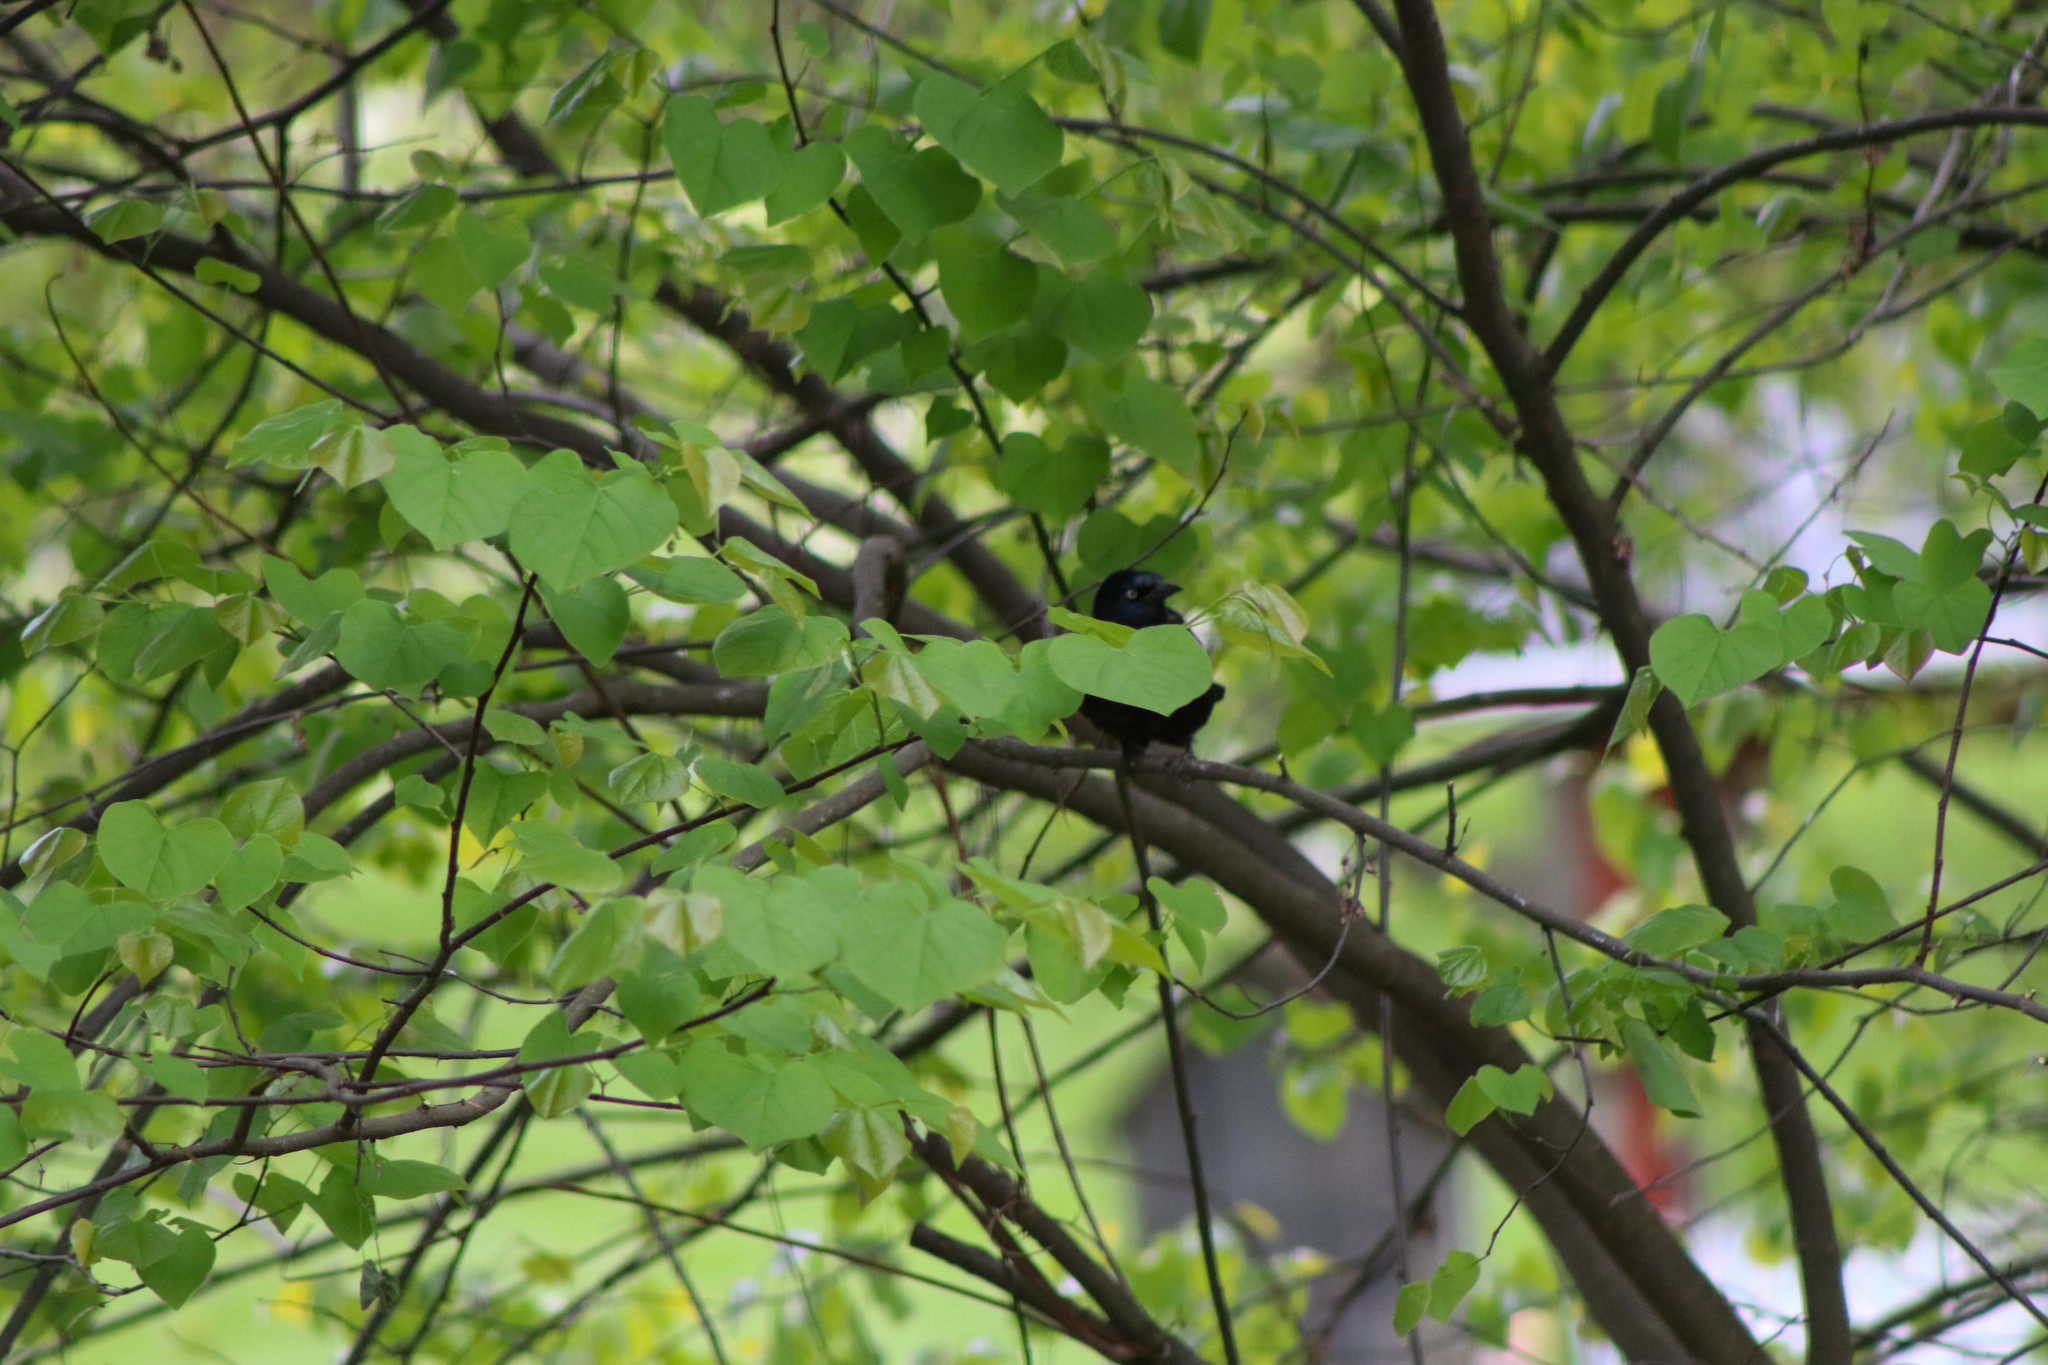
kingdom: Animalia
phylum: Chordata
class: Aves
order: Passeriformes
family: Icteridae
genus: Quiscalus
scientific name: Quiscalus quiscula
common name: Common grackle
